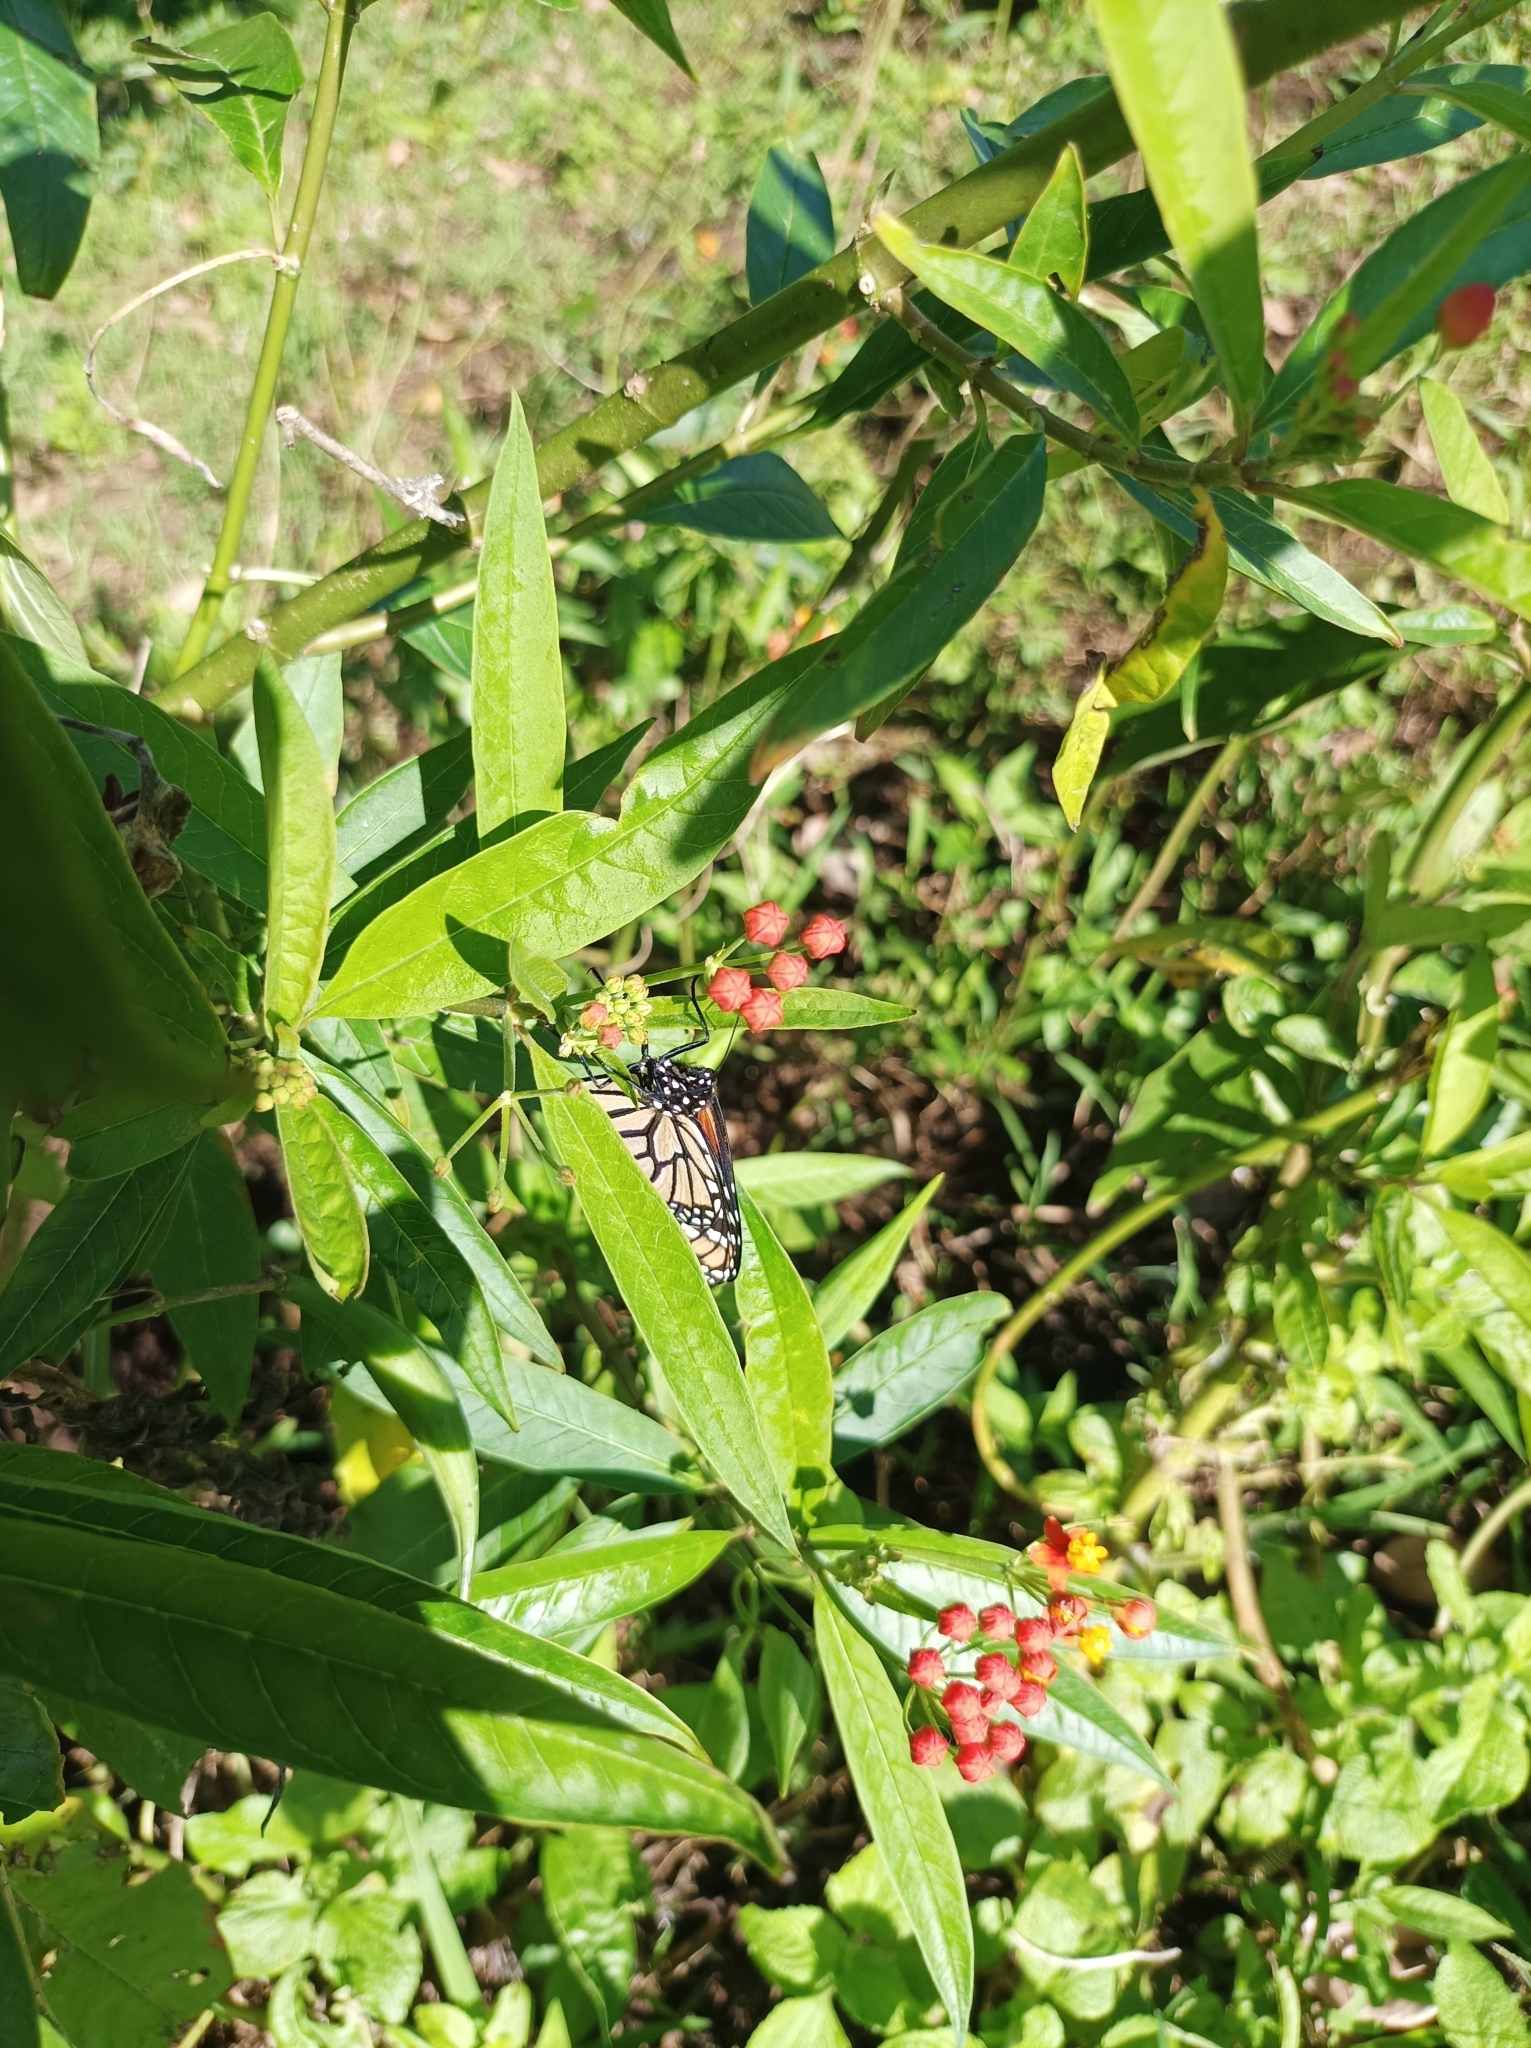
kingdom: Animalia
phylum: Arthropoda
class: Insecta
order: Lepidoptera
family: Nymphalidae
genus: Danaus
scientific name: Danaus plexippus
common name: Monarch
